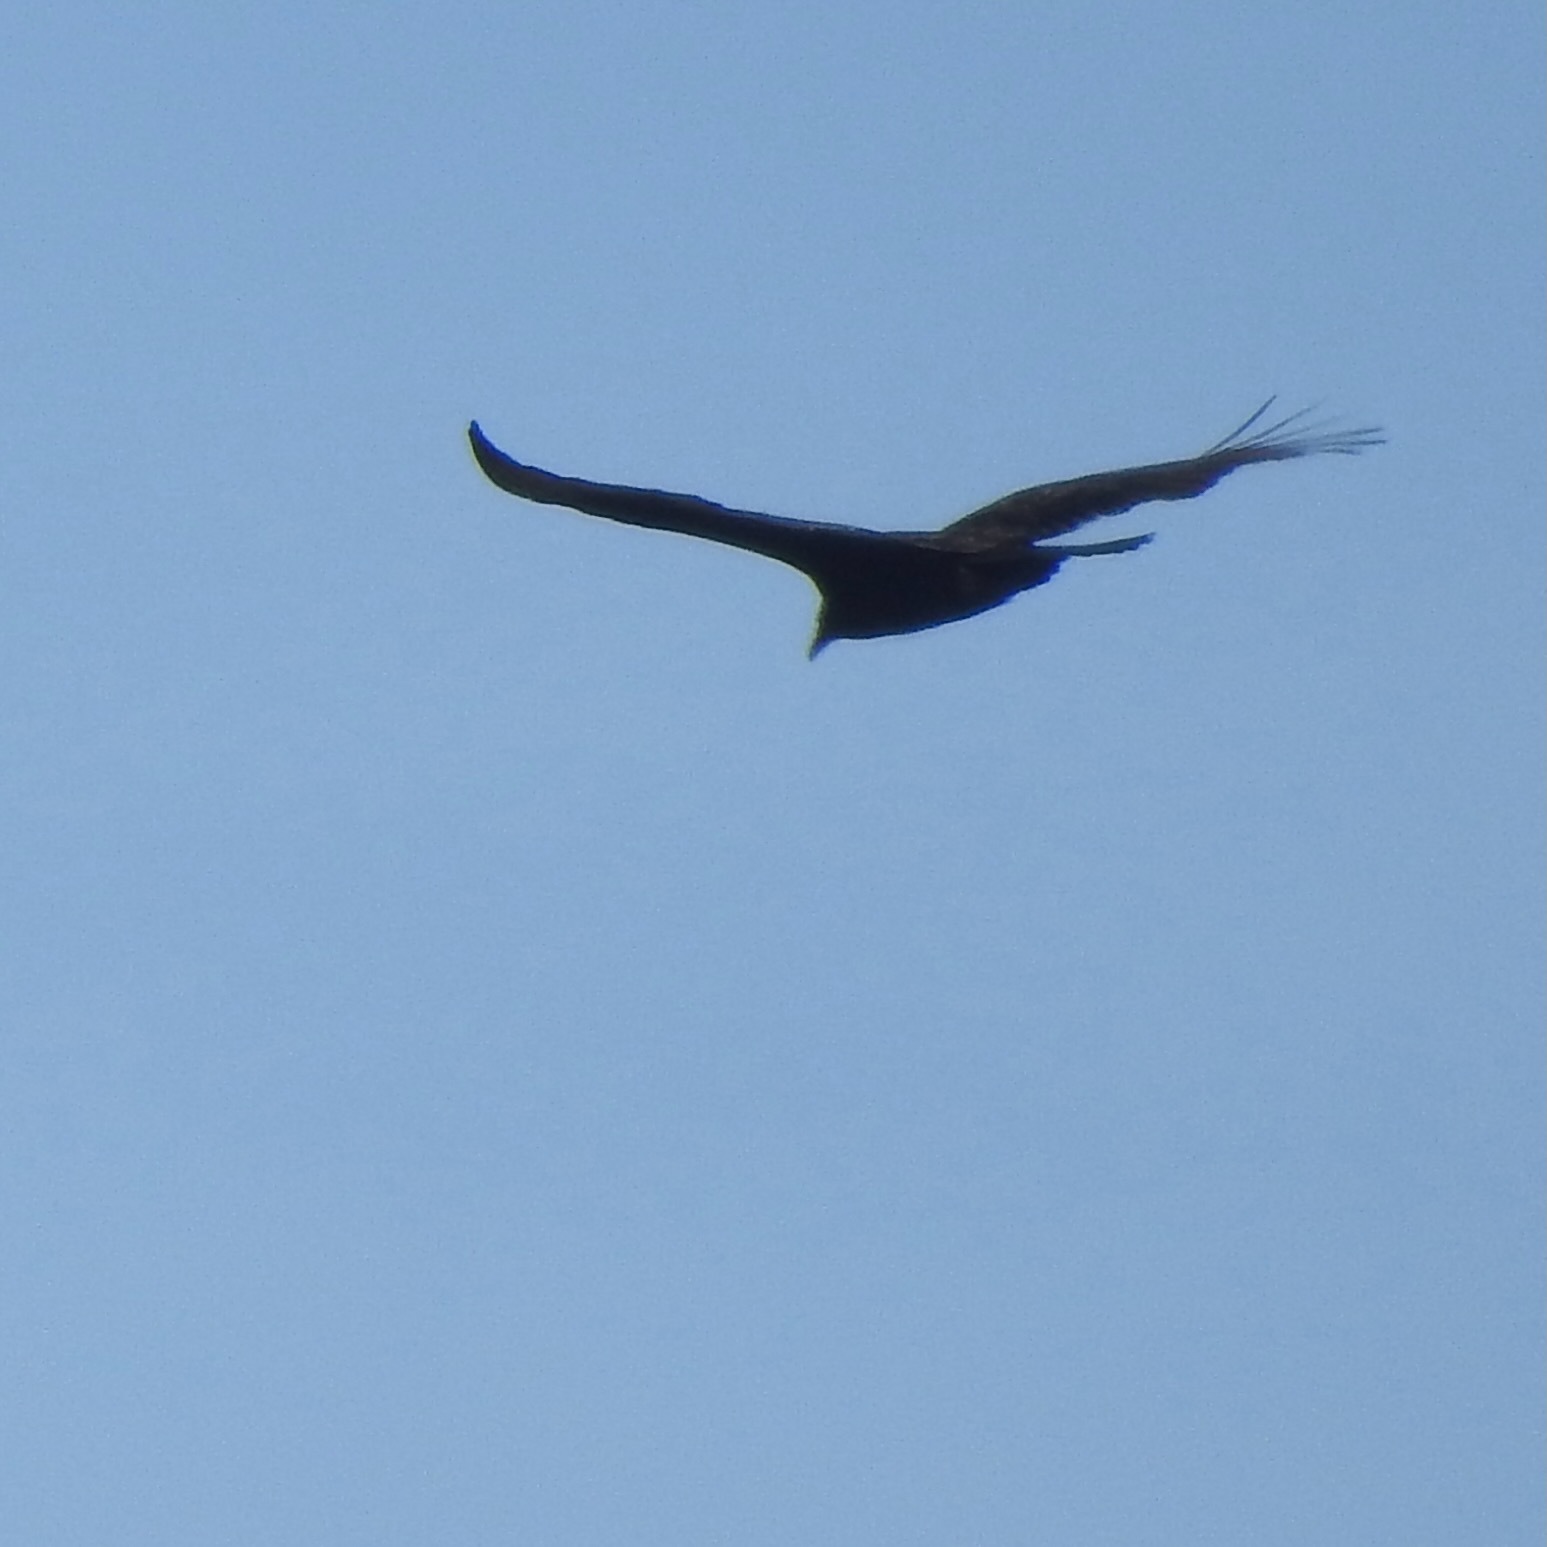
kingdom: Animalia
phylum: Chordata
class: Aves
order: Accipitriformes
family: Cathartidae
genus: Cathartes
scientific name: Cathartes aura
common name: Turkey vulture
